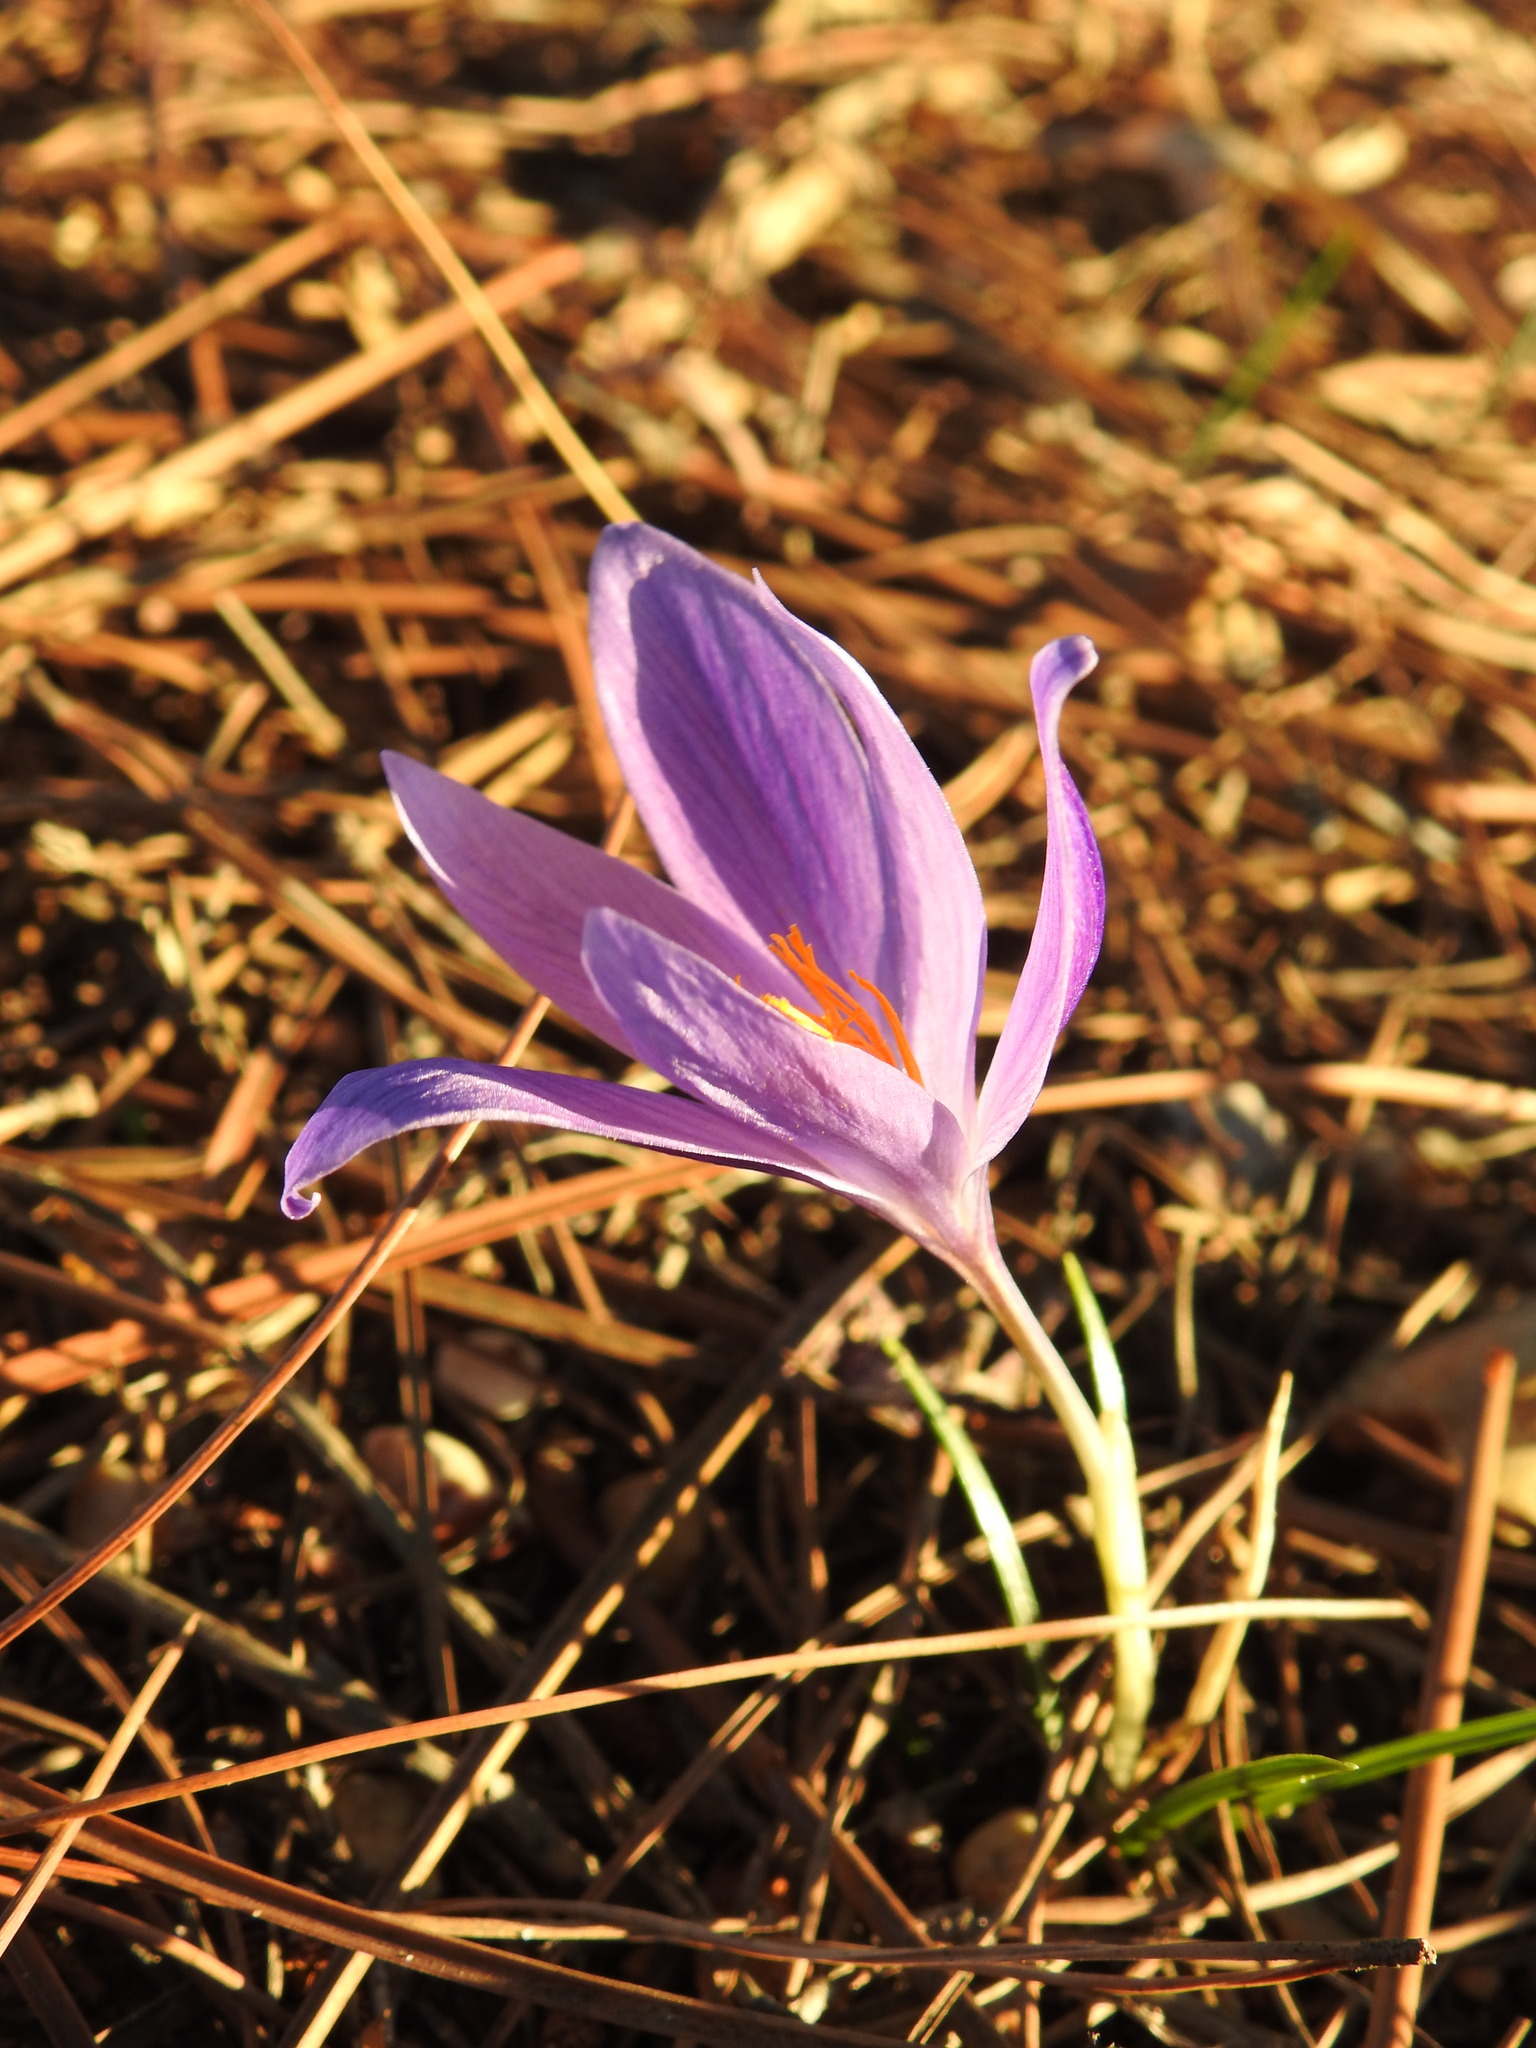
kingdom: Plantae
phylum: Tracheophyta
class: Liliopsida
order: Asparagales
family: Iridaceae
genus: Crocus
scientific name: Crocus serotinus
